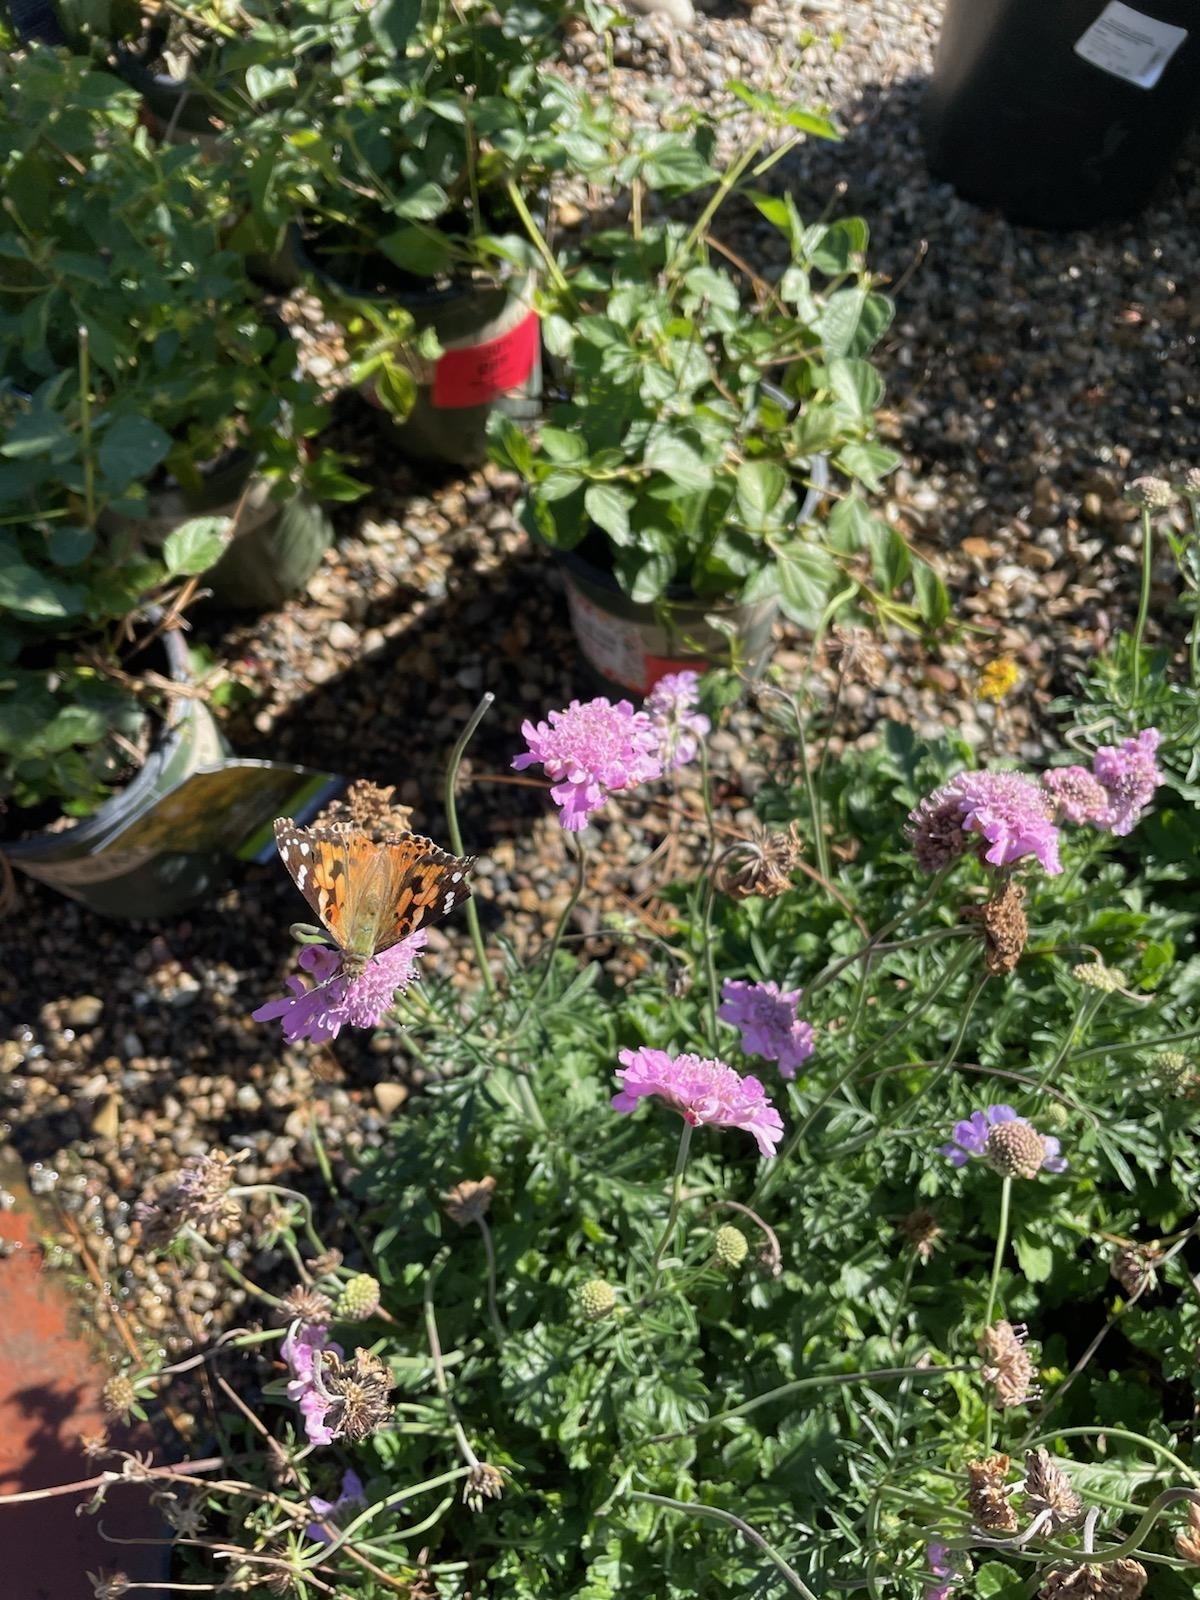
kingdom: Animalia
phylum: Arthropoda
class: Insecta
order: Lepidoptera
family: Nymphalidae
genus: Vanessa
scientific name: Vanessa cardui
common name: Painted lady
